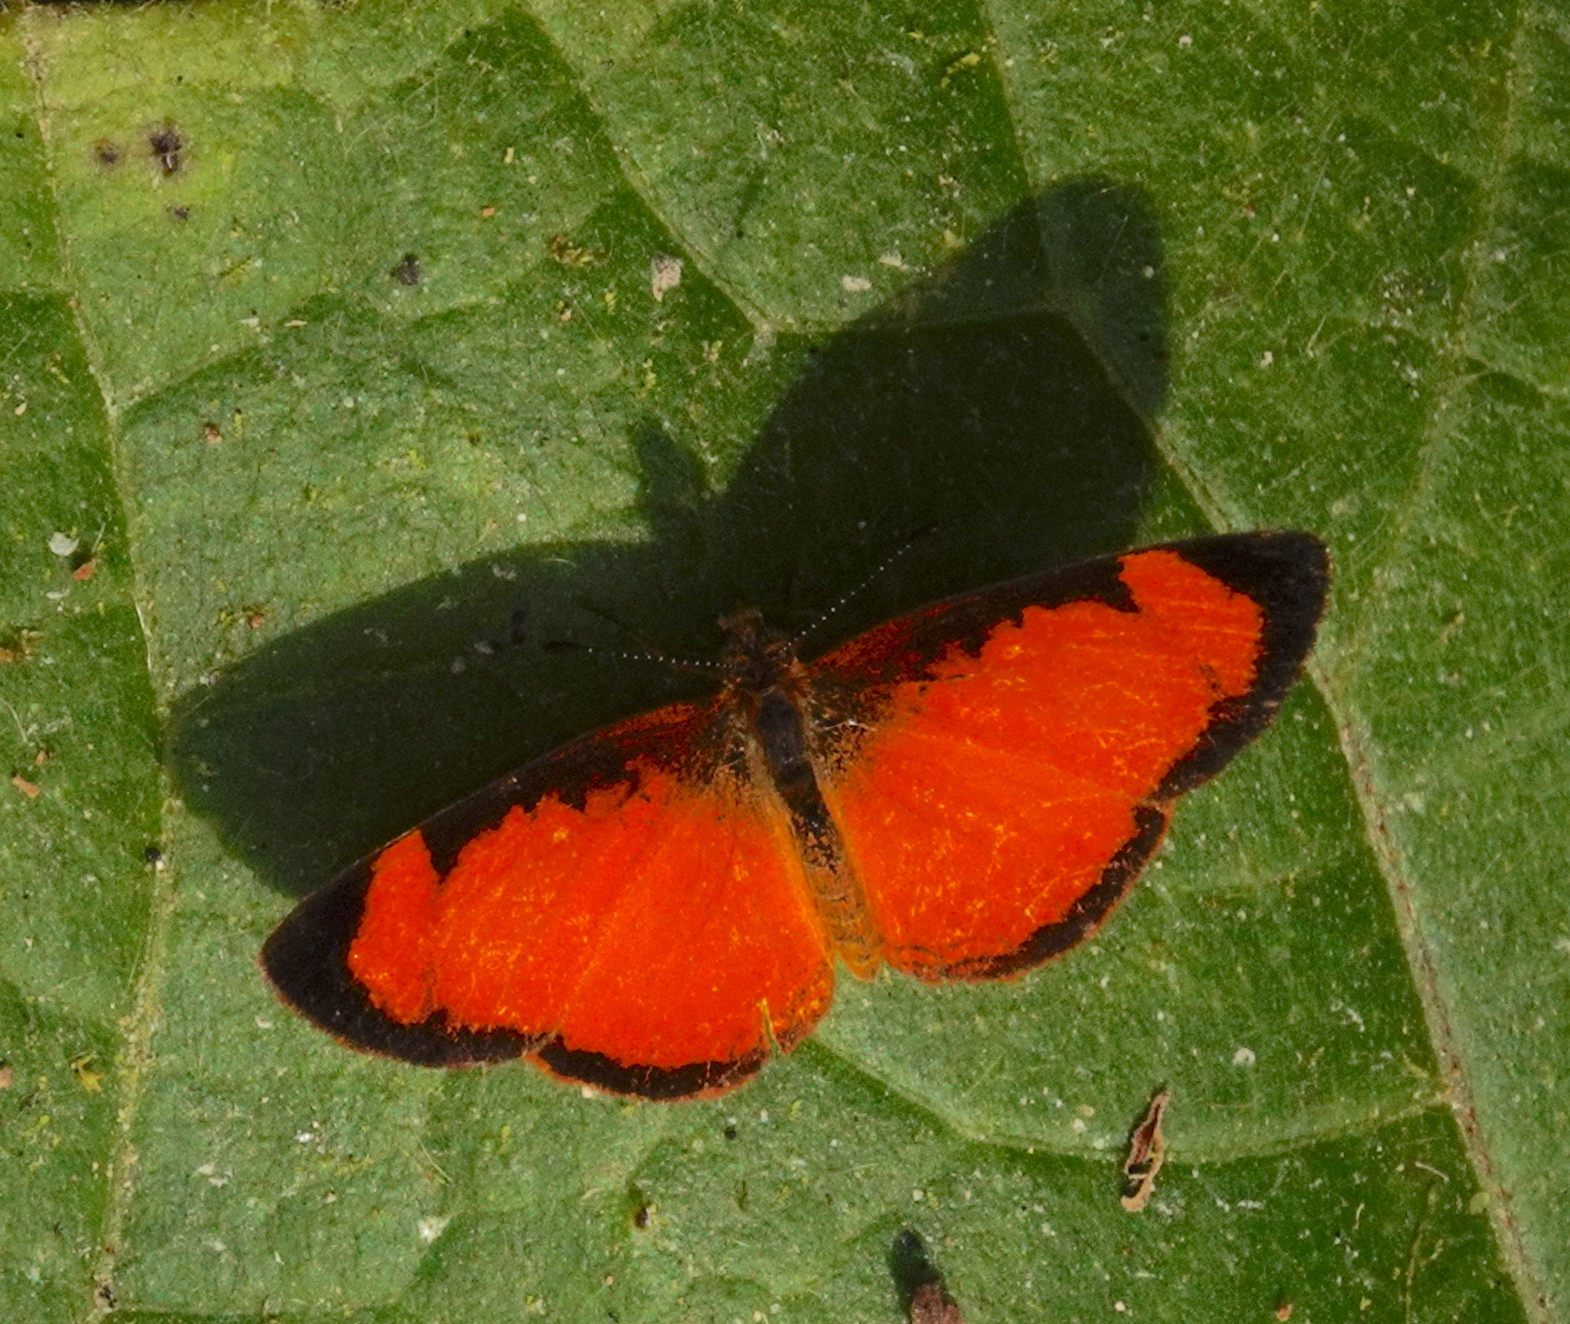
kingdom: Animalia
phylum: Arthropoda
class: Insecta
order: Lepidoptera
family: Nymphalidae
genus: Tegosa
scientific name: Tegosa claudina
